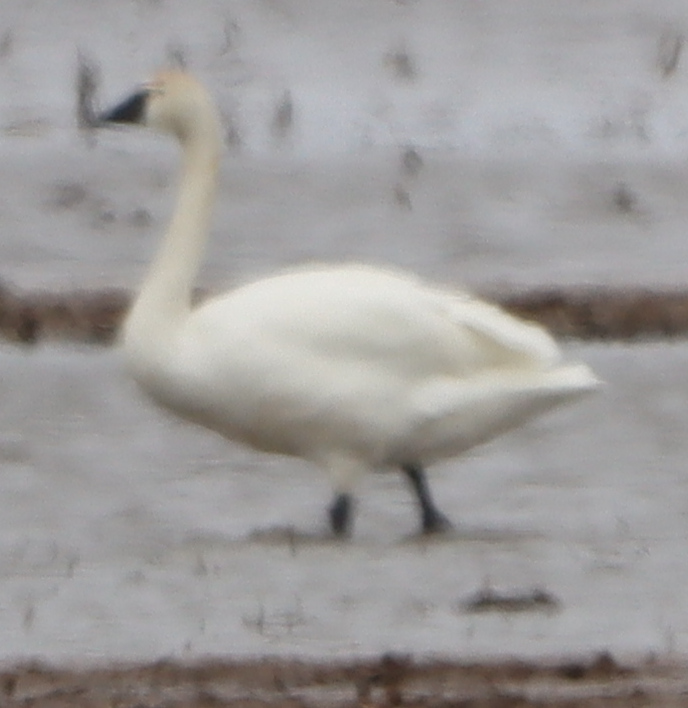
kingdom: Animalia
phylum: Chordata
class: Aves
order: Anseriformes
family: Anatidae
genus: Cygnus
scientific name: Cygnus columbianus
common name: Tundra swan
